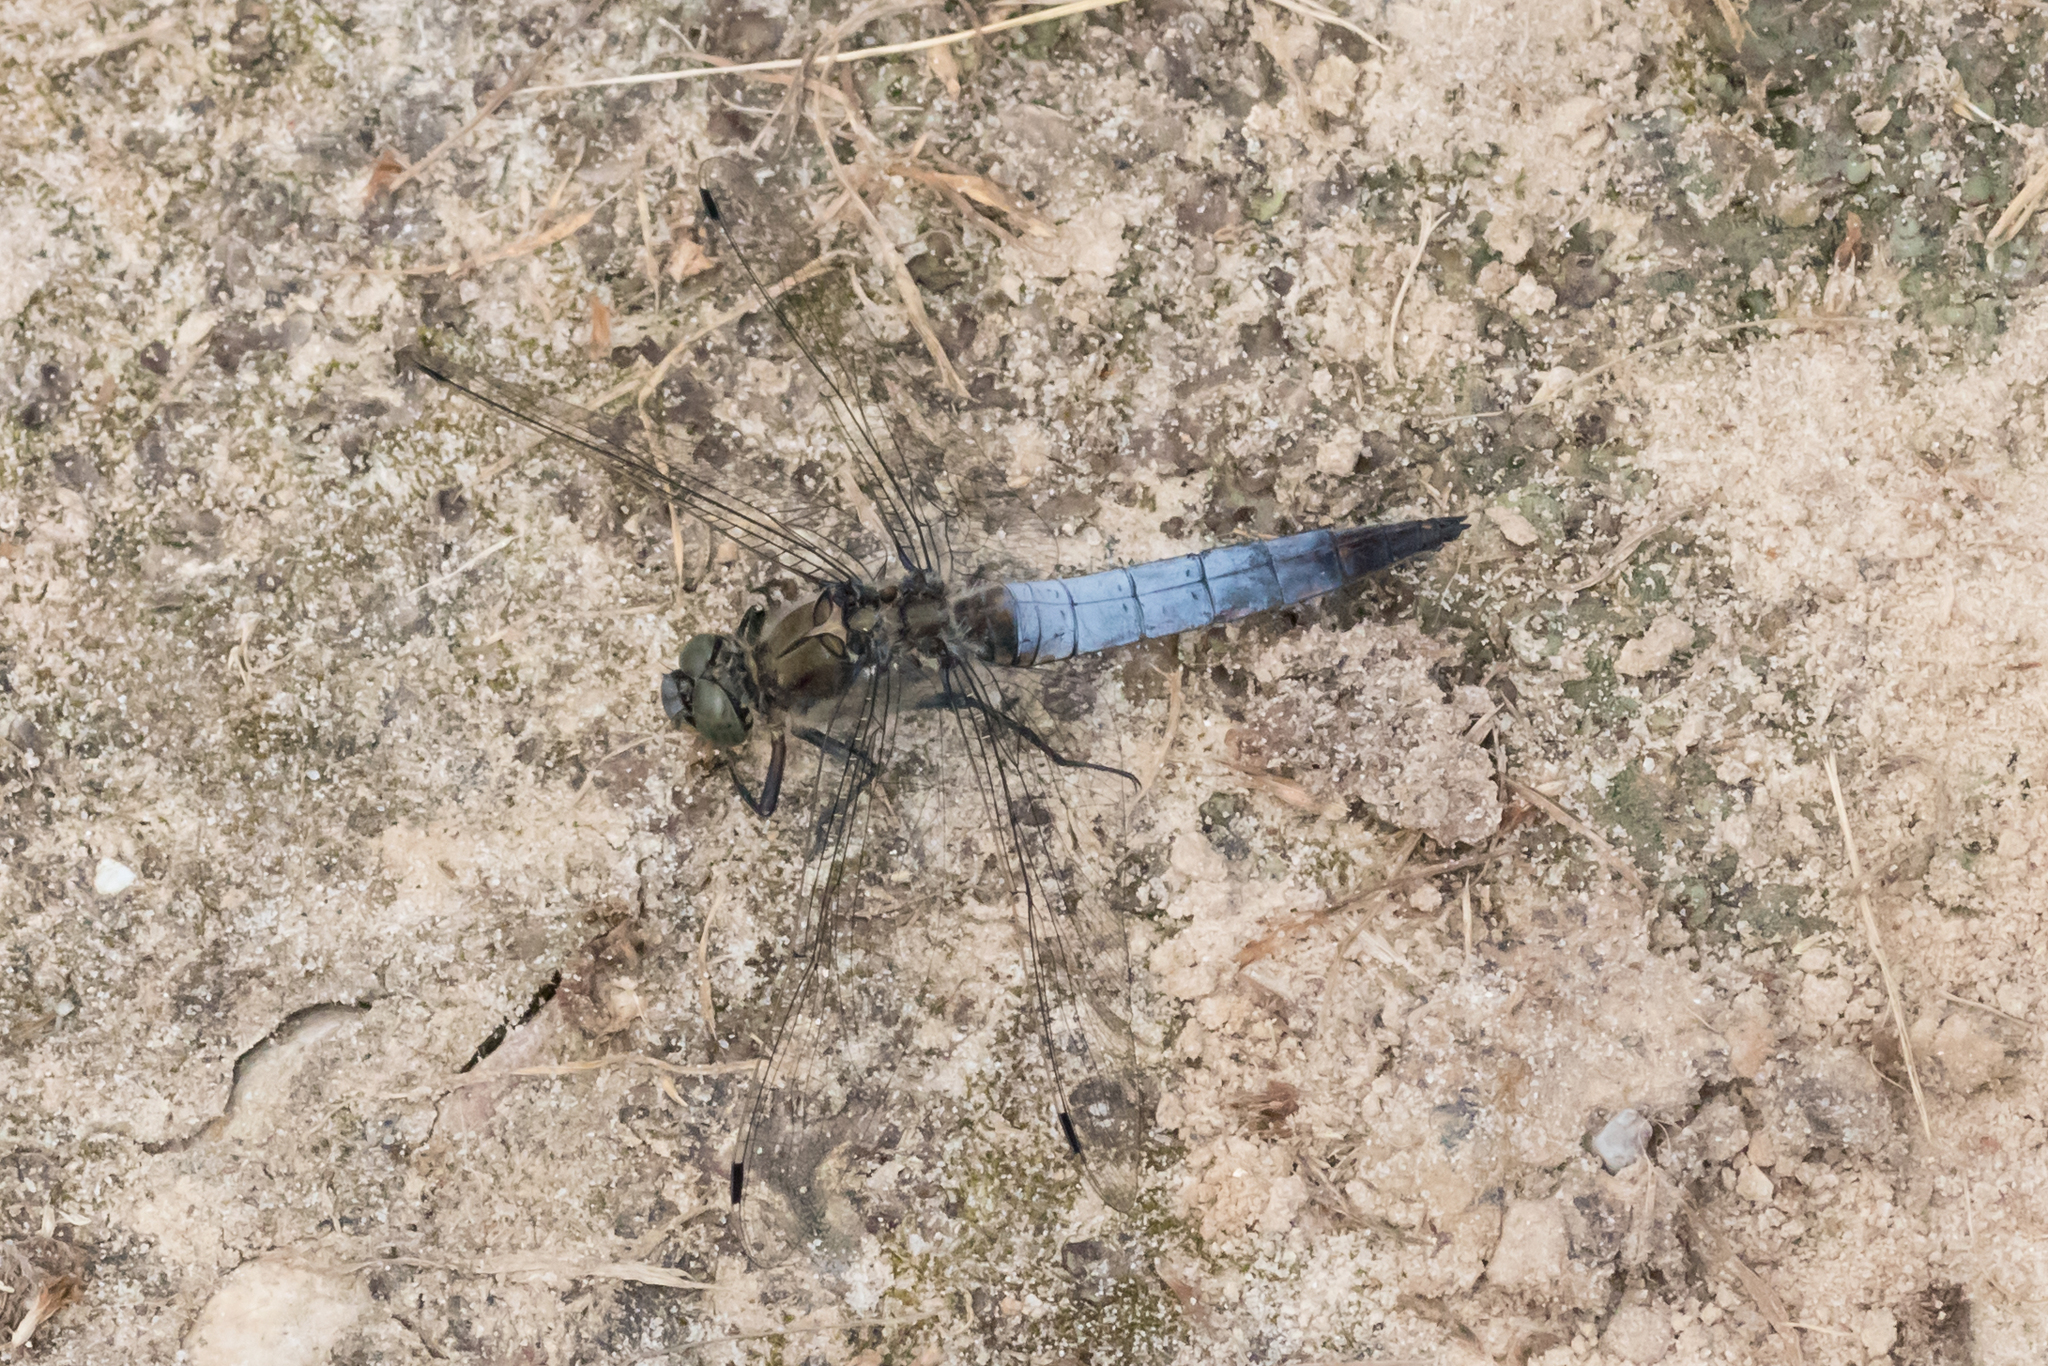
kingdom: Animalia
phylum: Arthropoda
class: Insecta
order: Odonata
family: Libellulidae
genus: Orthetrum
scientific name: Orthetrum cancellatum
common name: Black-tailed skimmer
